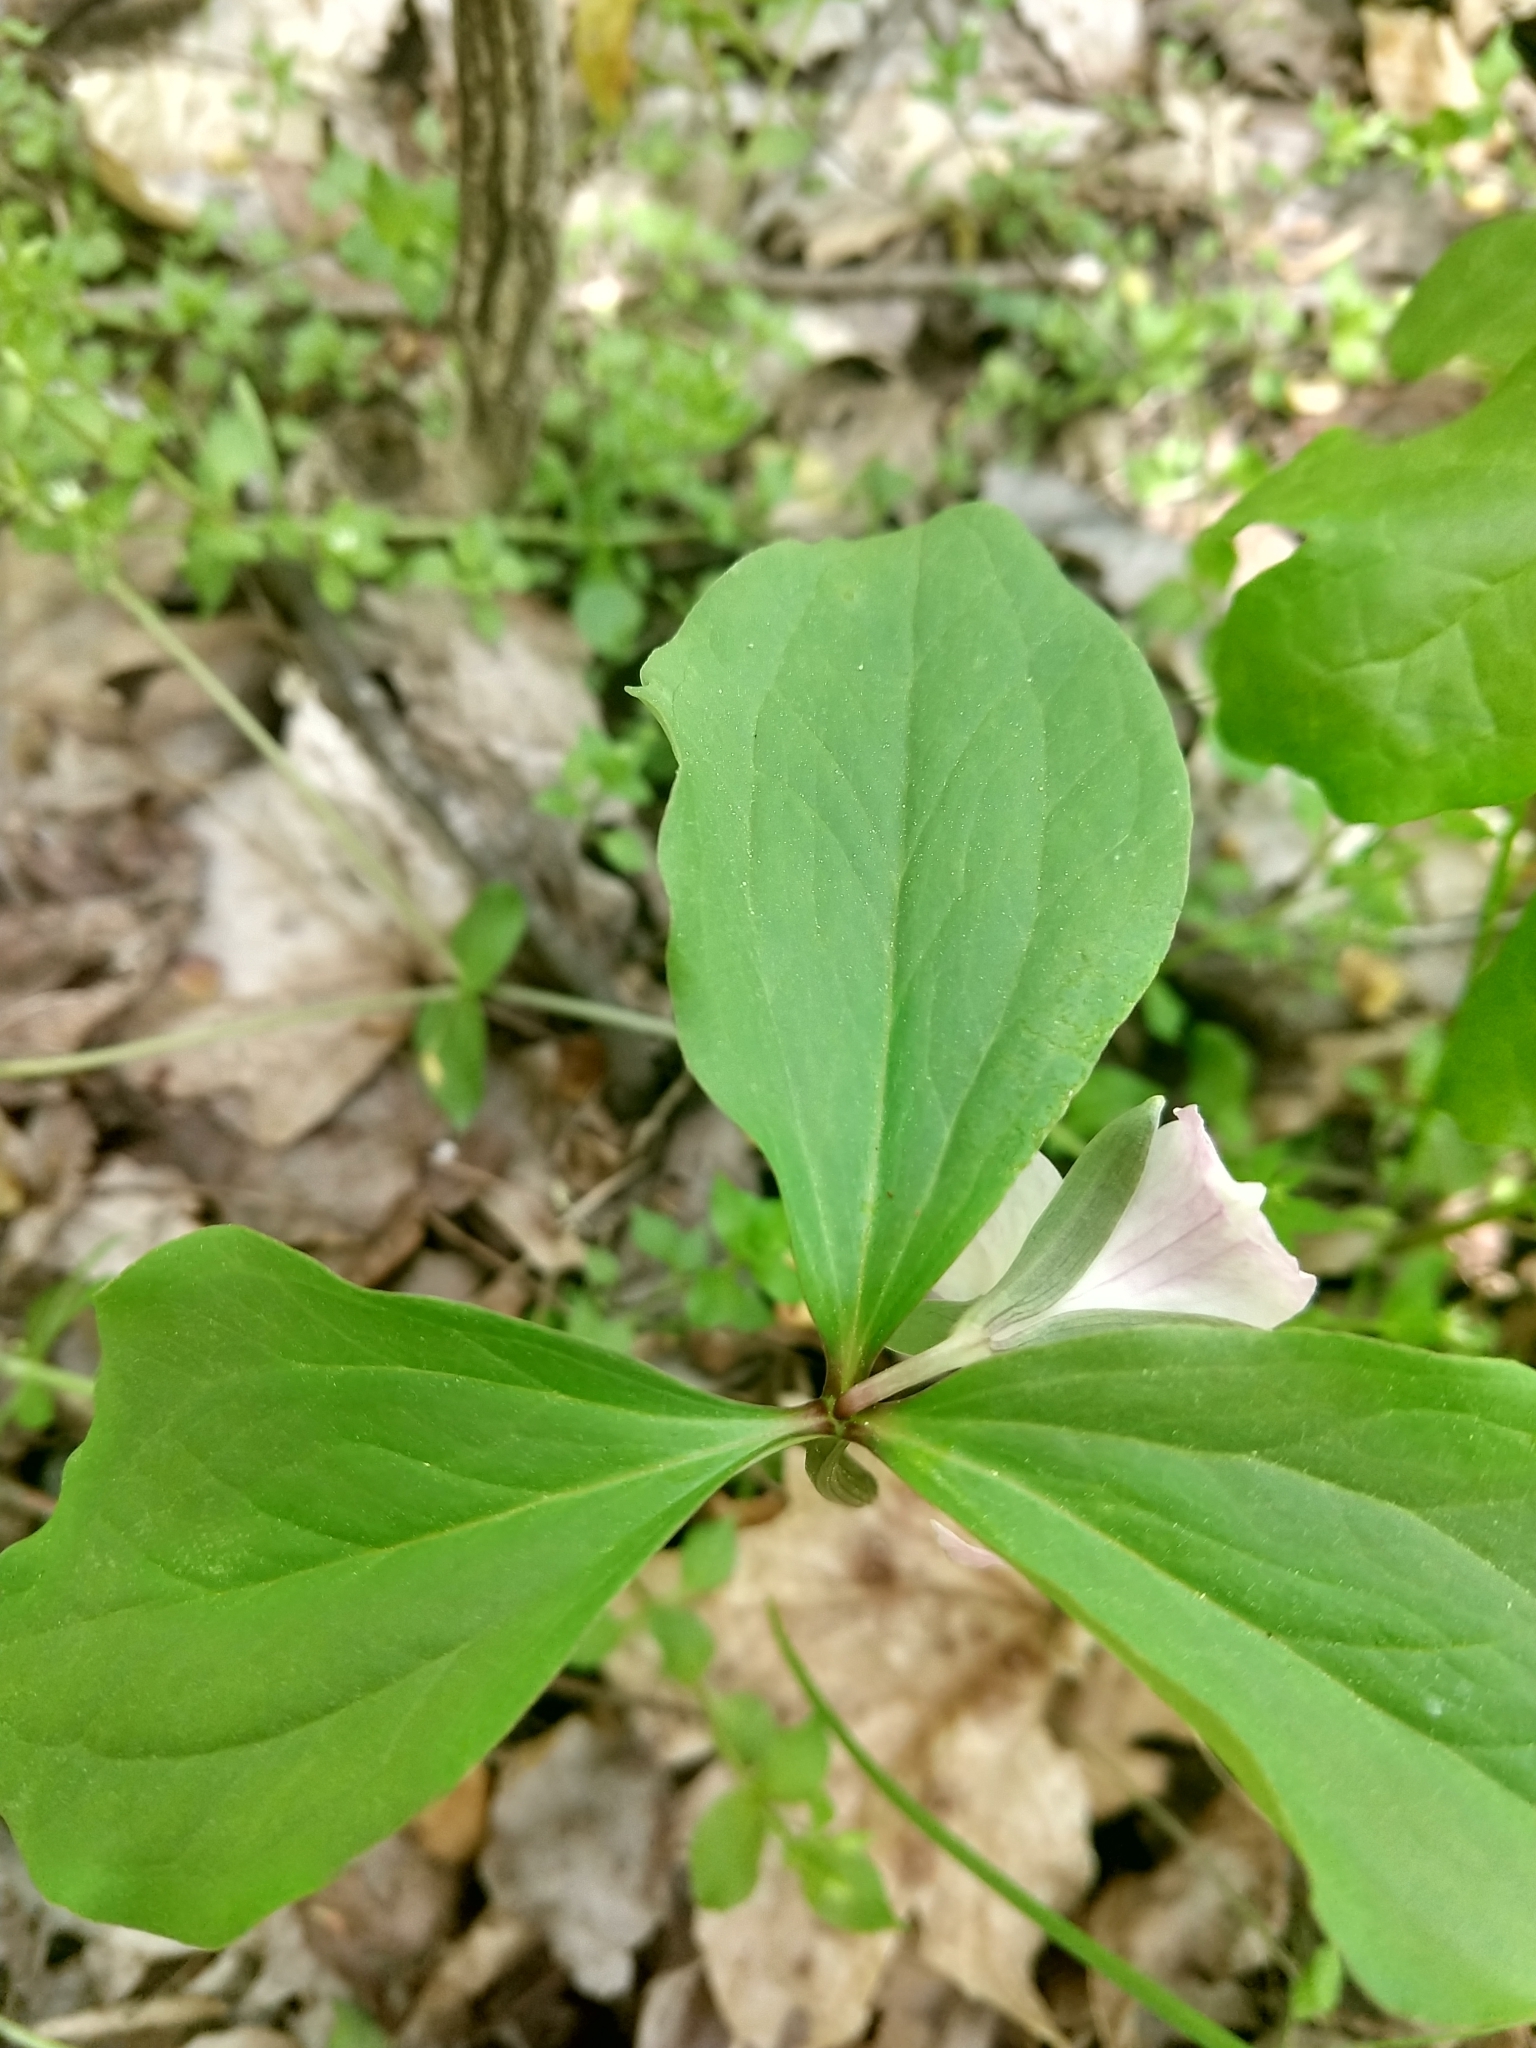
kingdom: Plantae
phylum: Tracheophyta
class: Liliopsida
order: Liliales
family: Melanthiaceae
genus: Trillium
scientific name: Trillium catesbaei
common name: Bashful trillium
